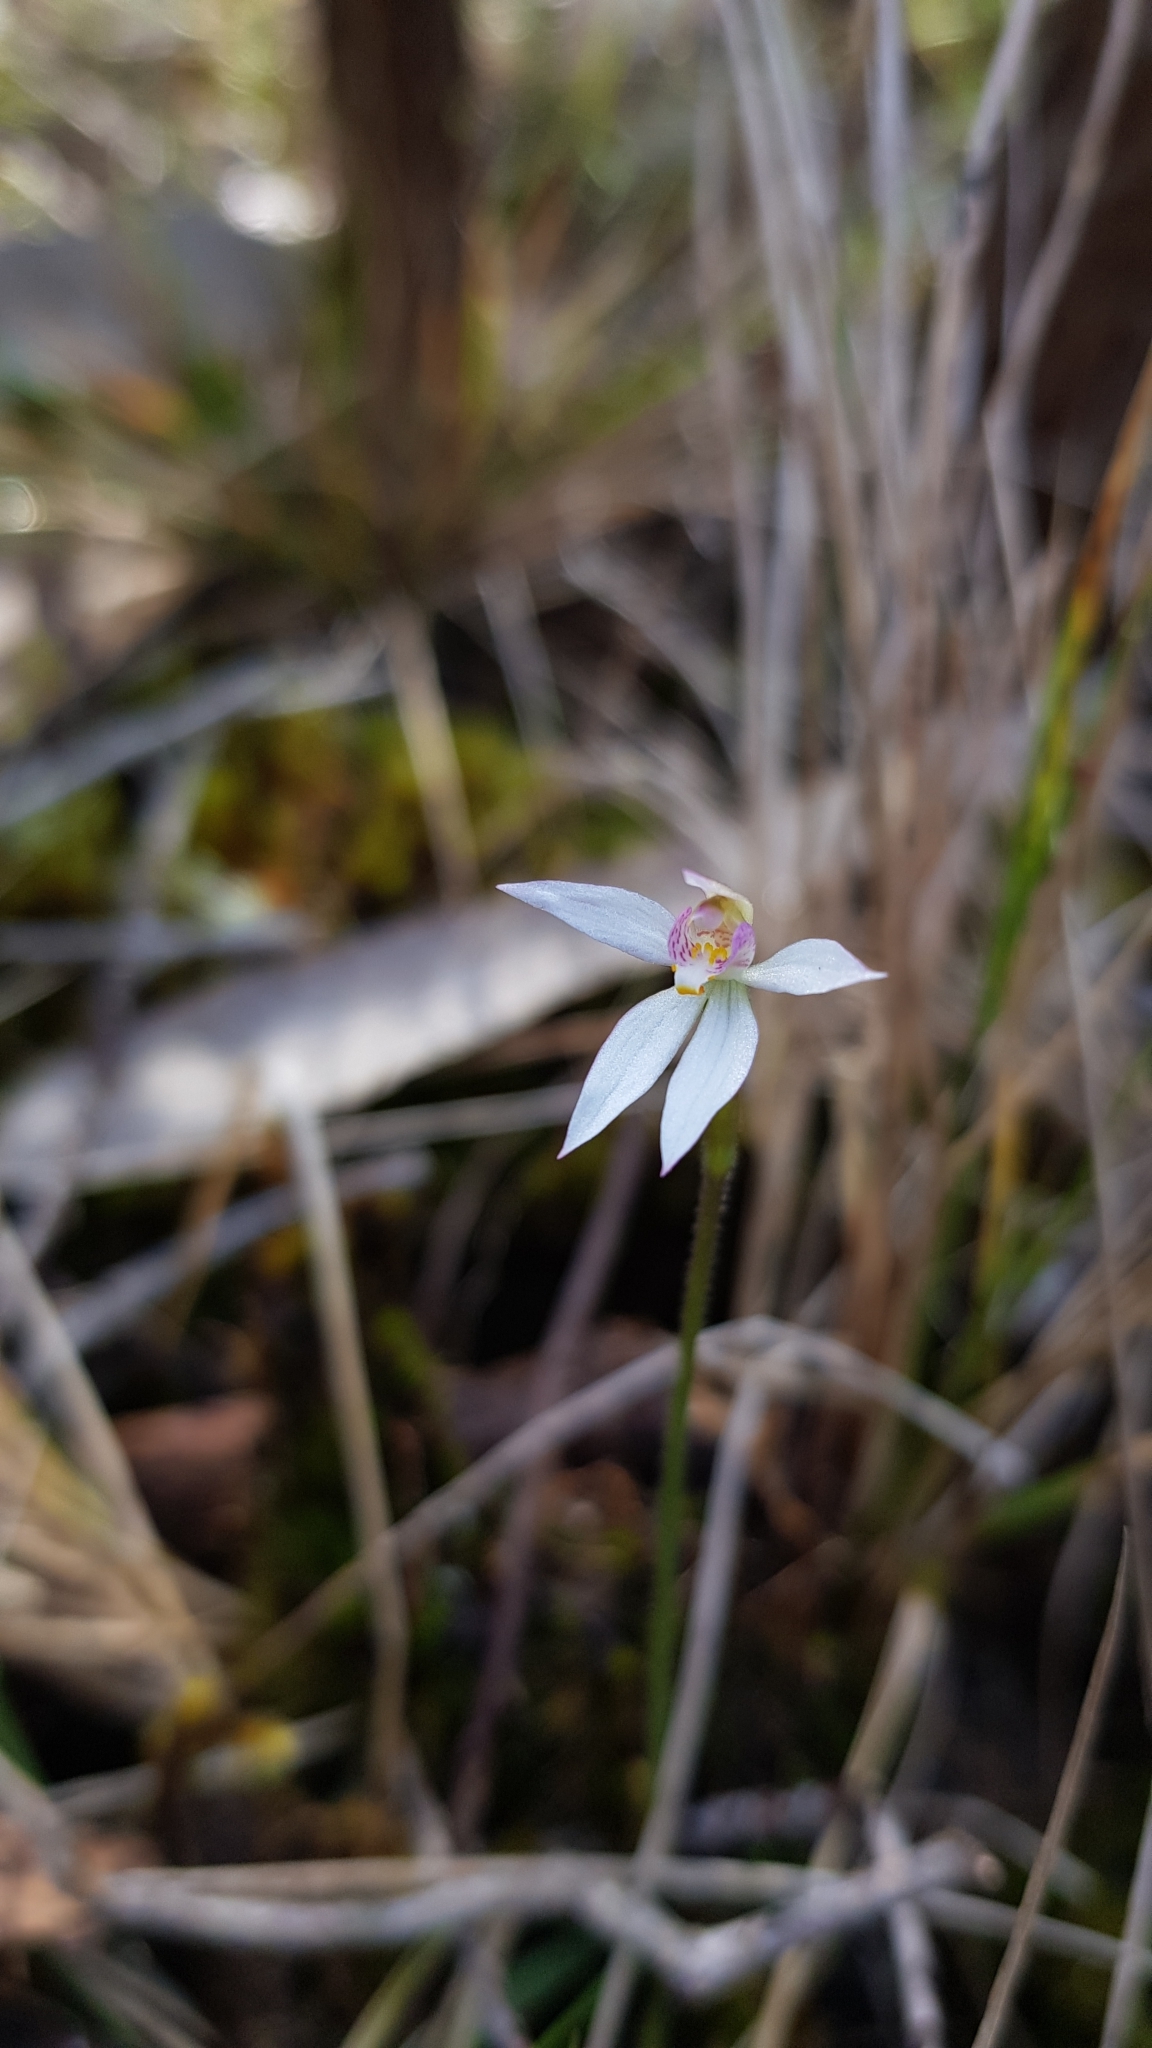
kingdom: Plantae
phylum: Tracheophyta
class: Liliopsida
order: Asparagales
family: Orchidaceae
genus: Caladenia
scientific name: Caladenia alata
